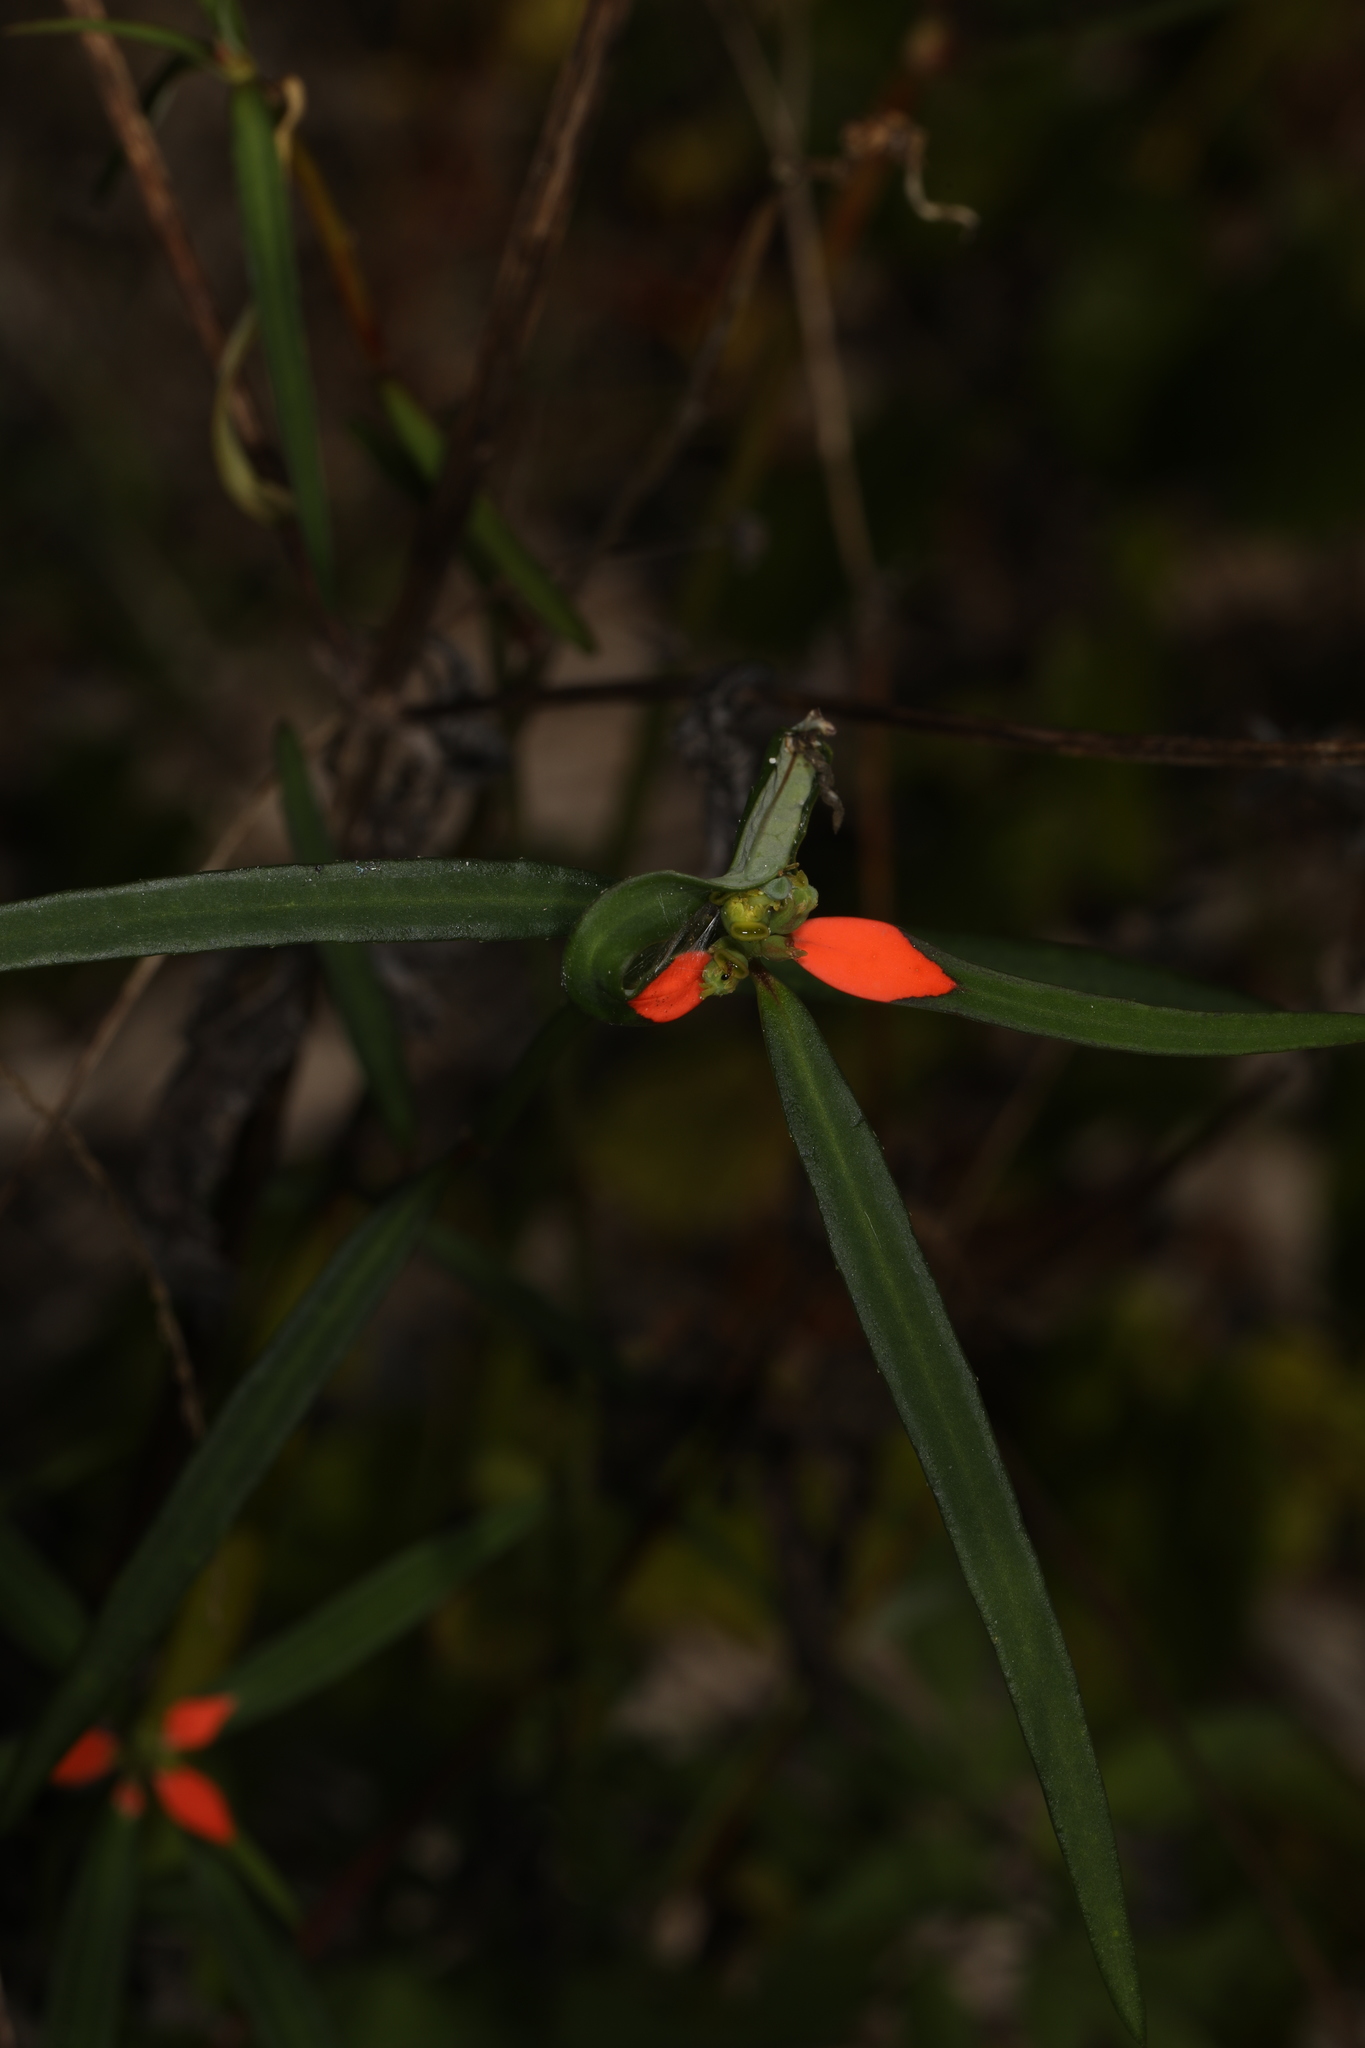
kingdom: Plantae
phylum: Tracheophyta
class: Magnoliopsida
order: Malpighiales
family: Euphorbiaceae
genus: Euphorbia
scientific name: Euphorbia heterophylla
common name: Mexican fireplant
